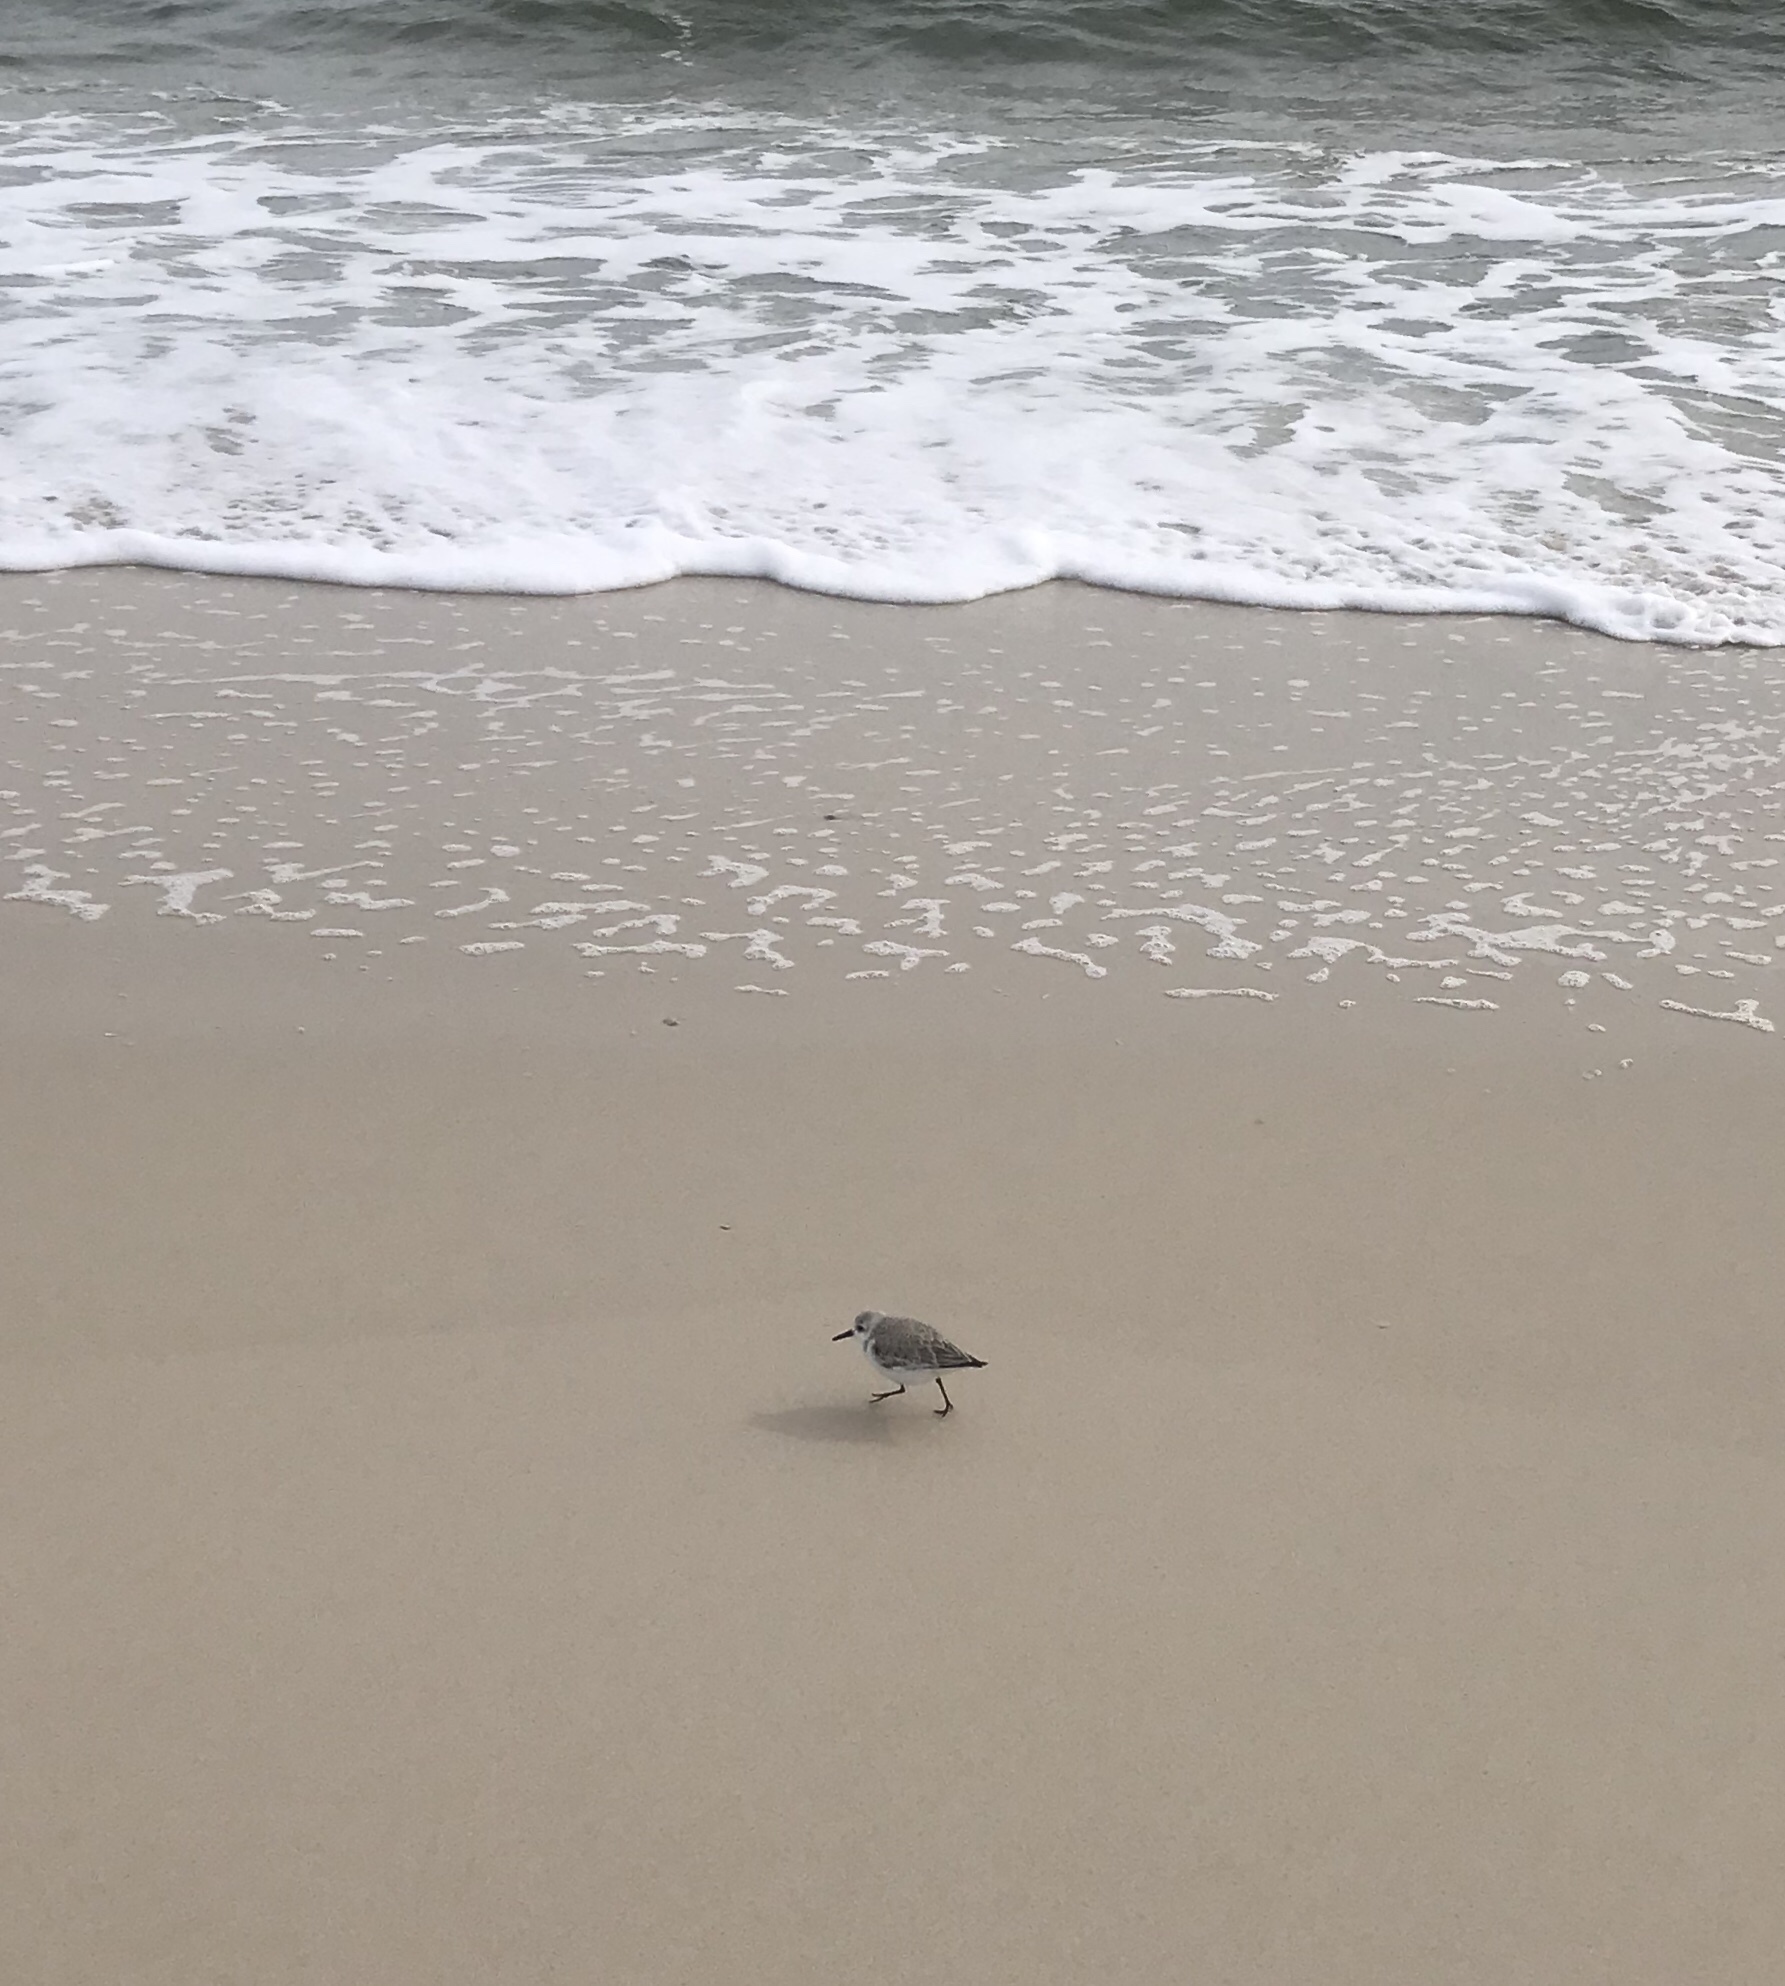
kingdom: Animalia
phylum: Chordata
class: Aves
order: Charadriiformes
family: Scolopacidae
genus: Calidris
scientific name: Calidris alba
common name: Sanderling
